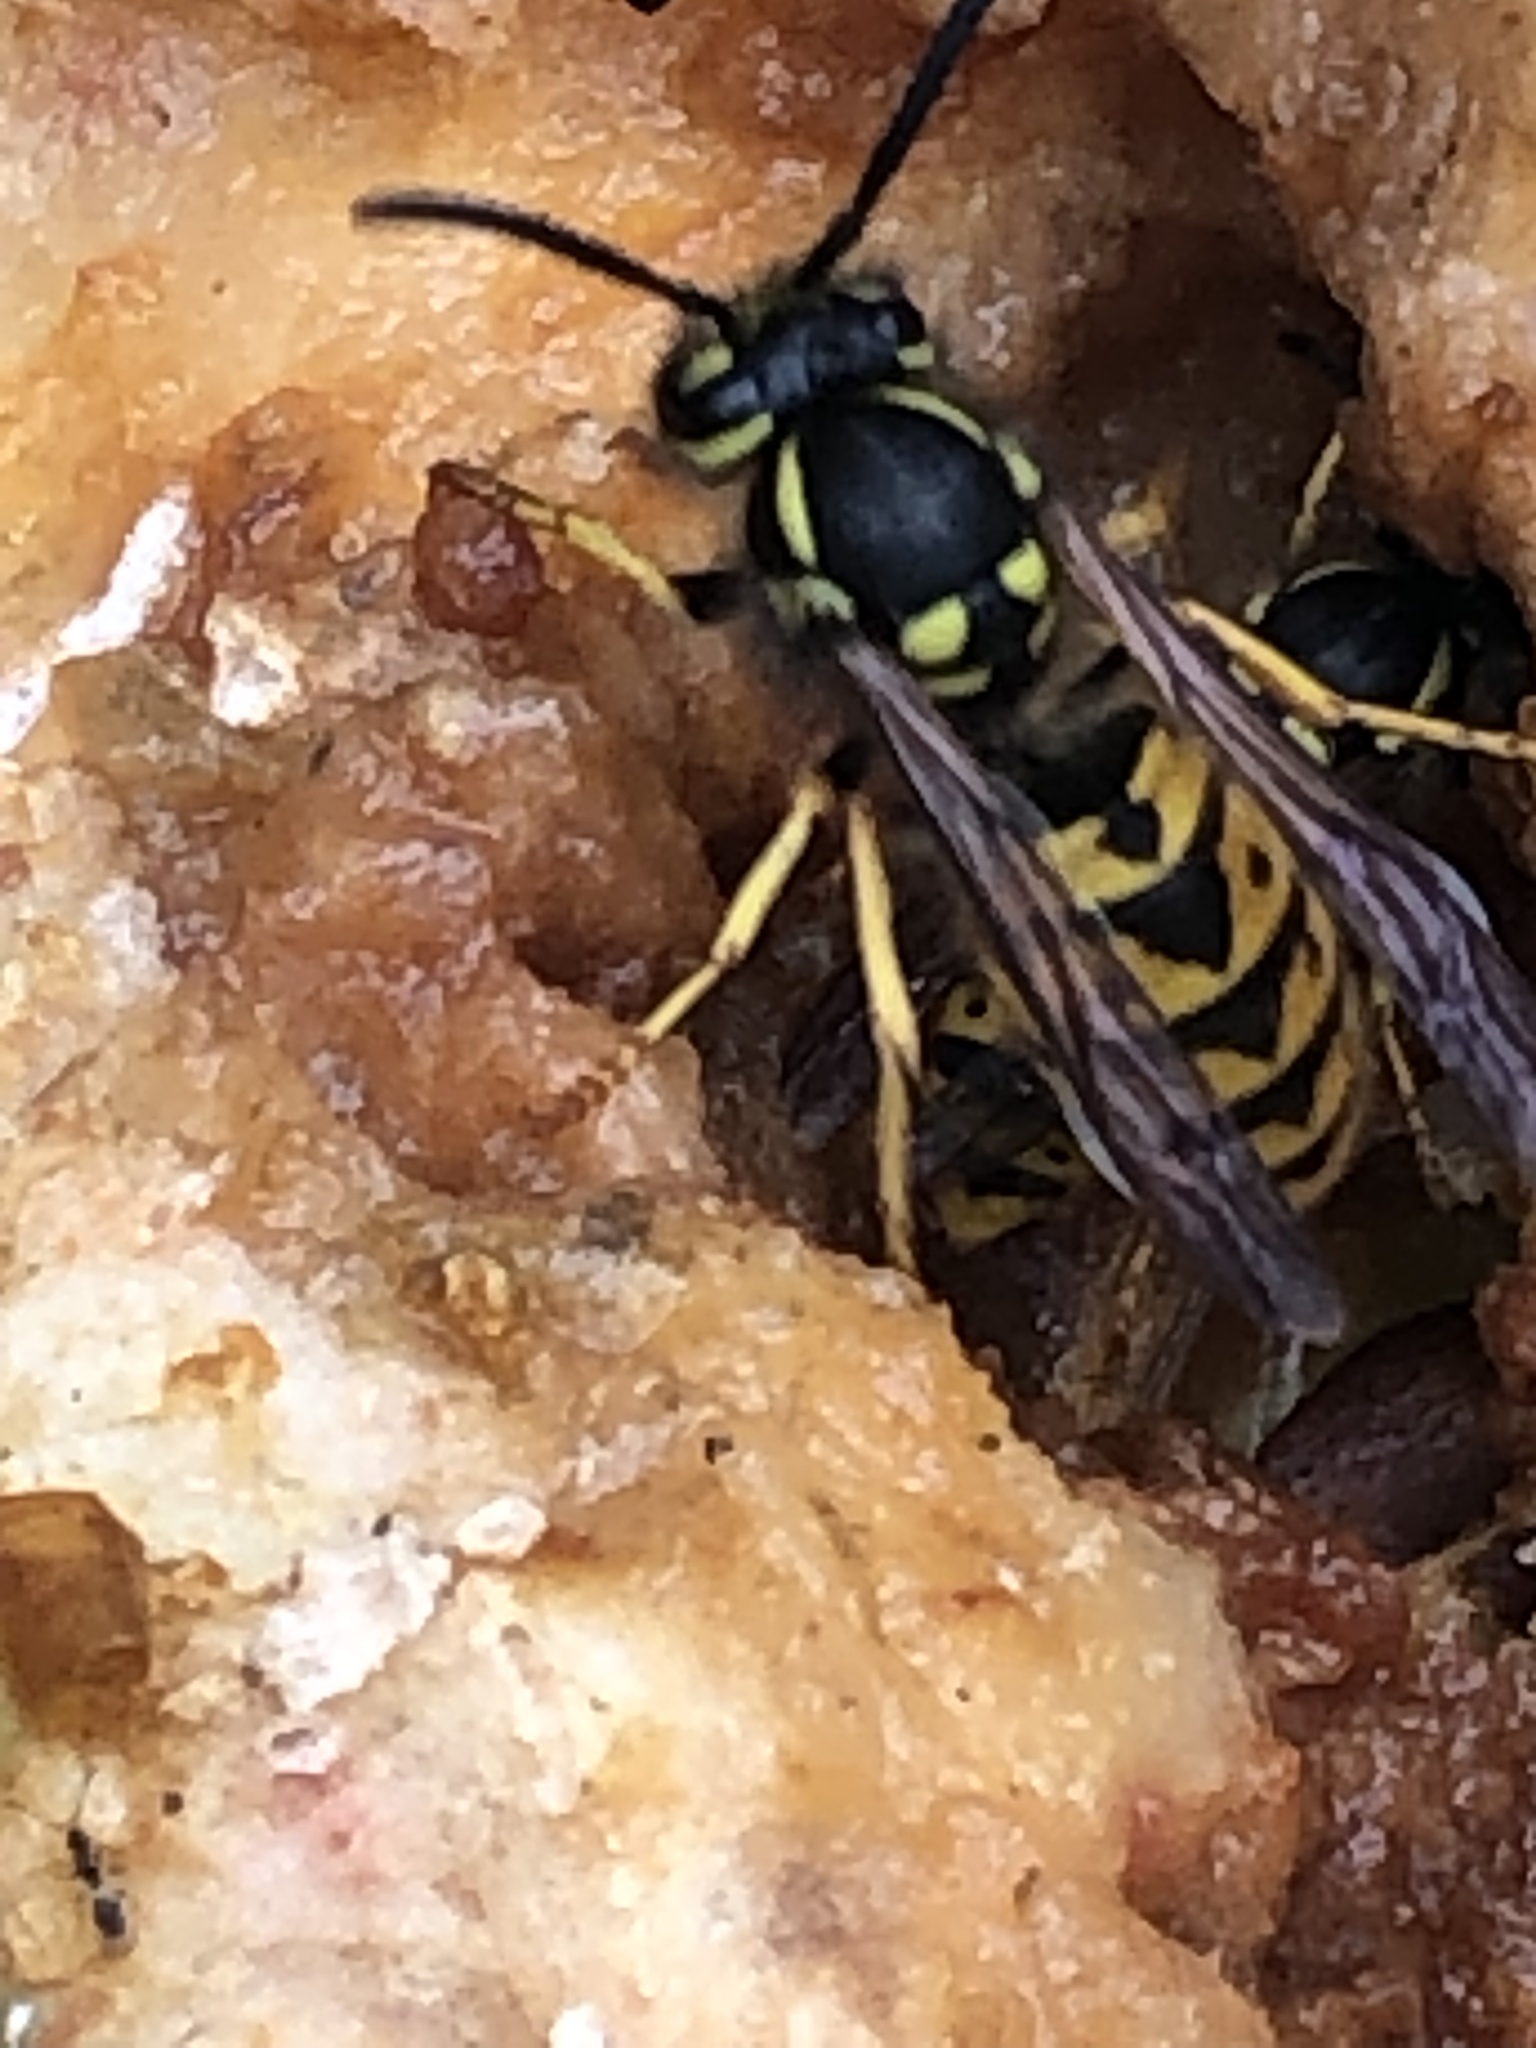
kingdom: Animalia
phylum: Arthropoda
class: Insecta
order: Hymenoptera
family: Vespidae
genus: Vespula
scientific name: Vespula germanica
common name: German wasp
